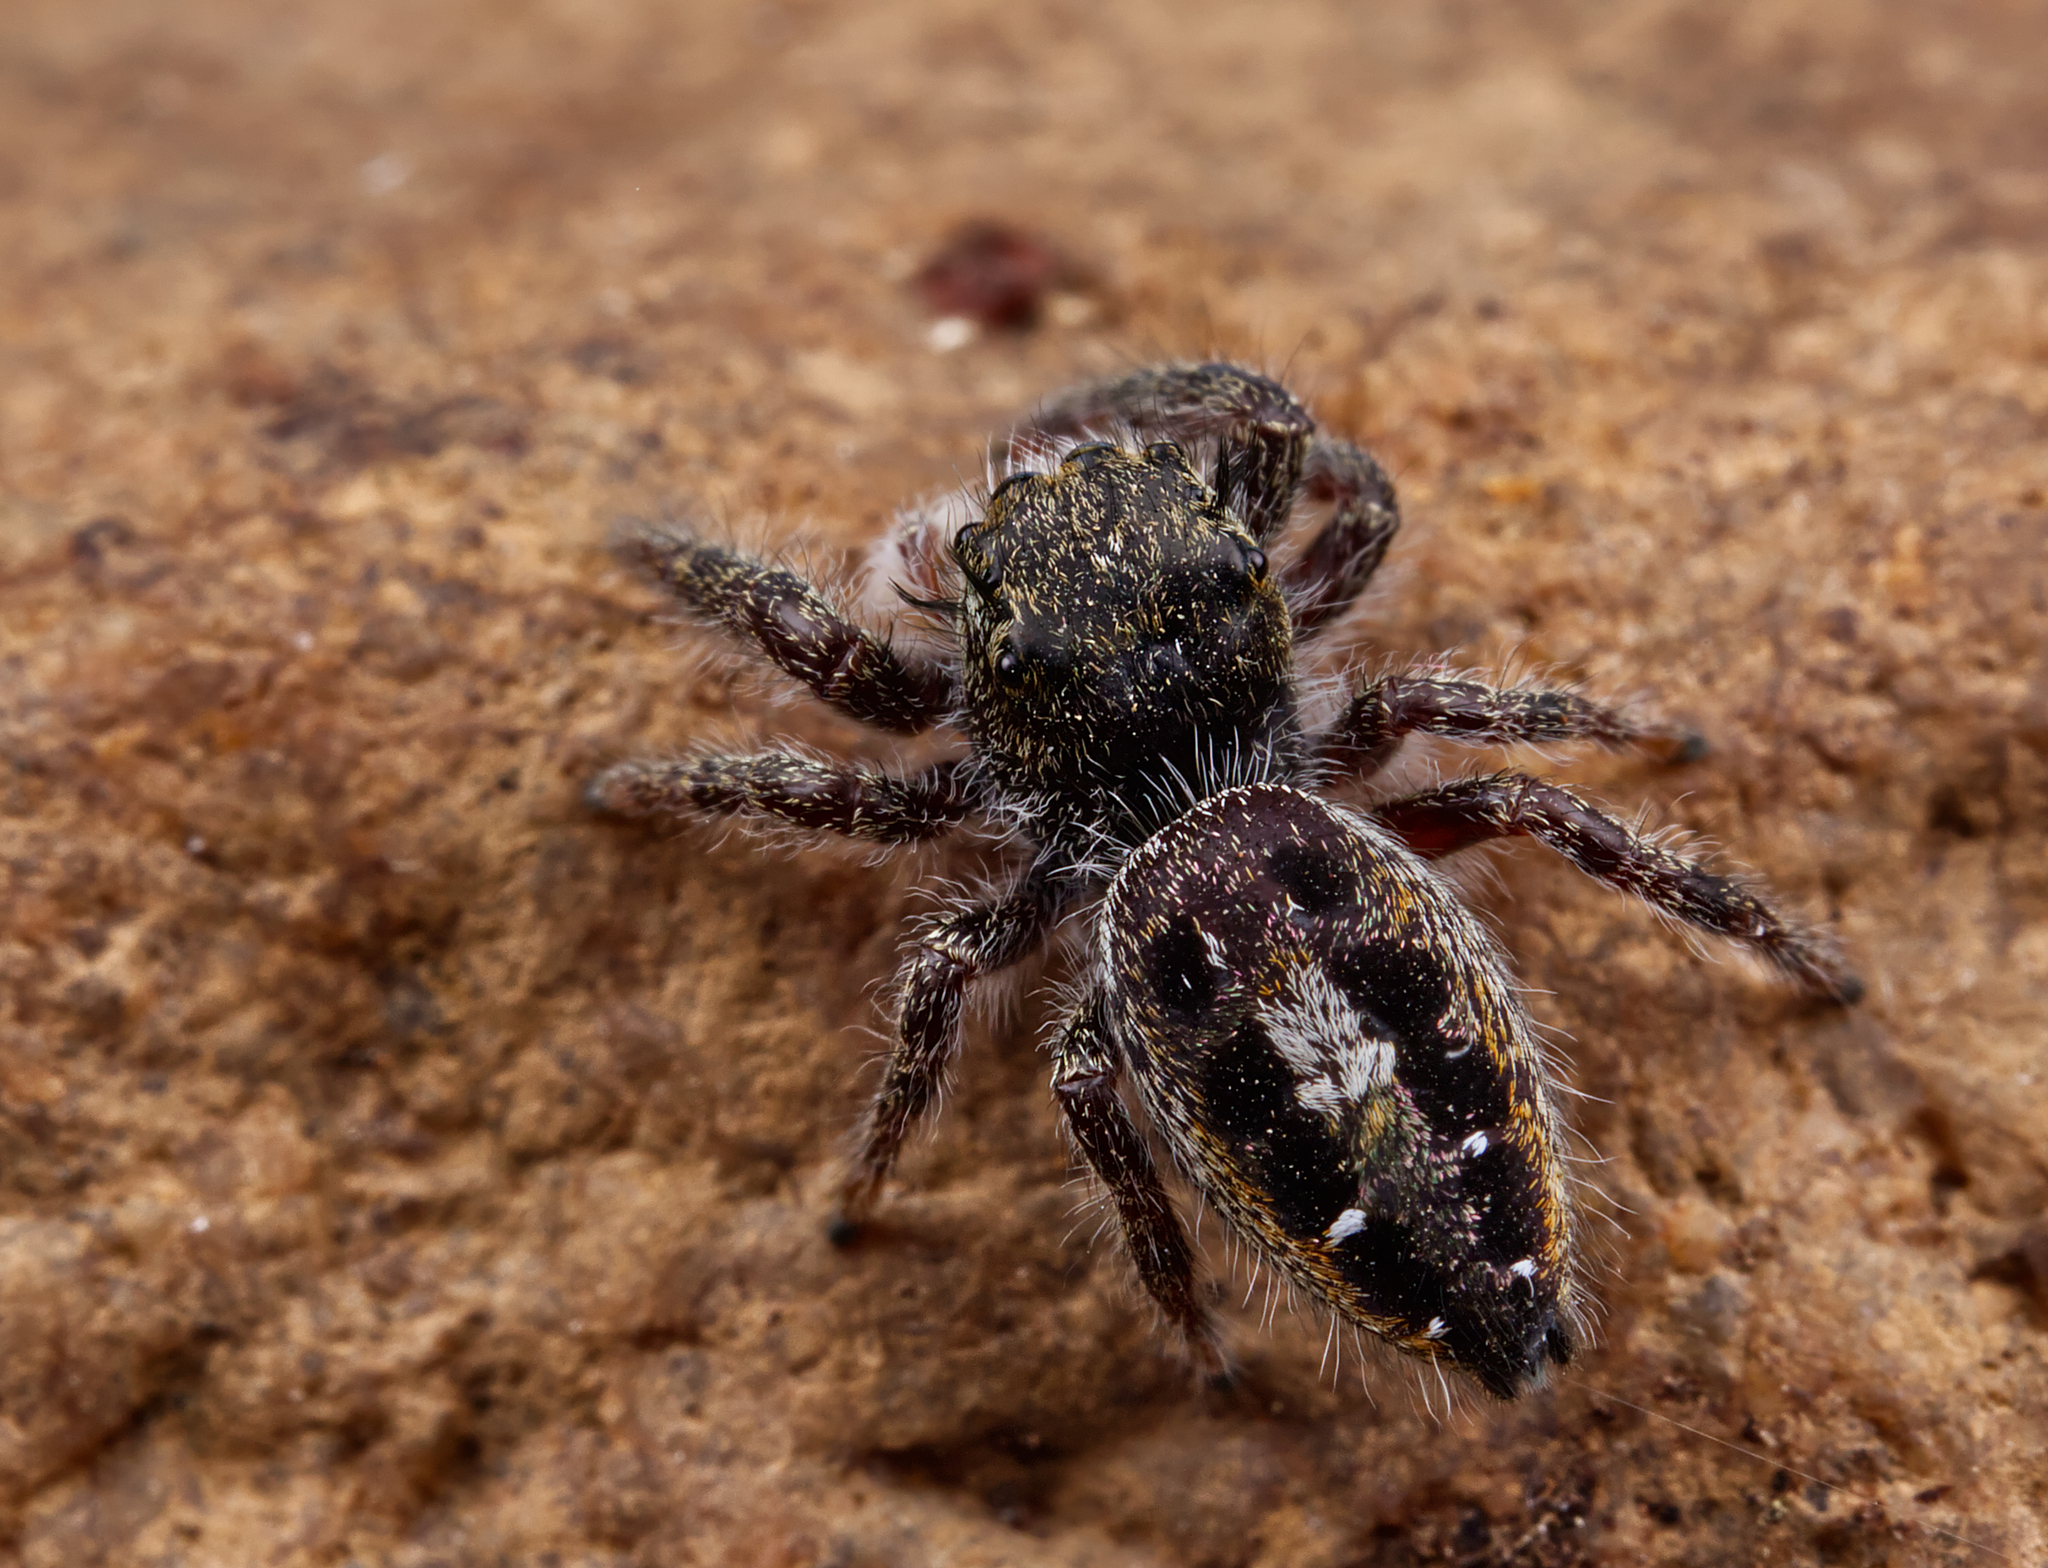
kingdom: Animalia
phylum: Arthropoda
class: Arachnida
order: Araneae
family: Salticidae
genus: Phidippus
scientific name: Phidippus insignarius
